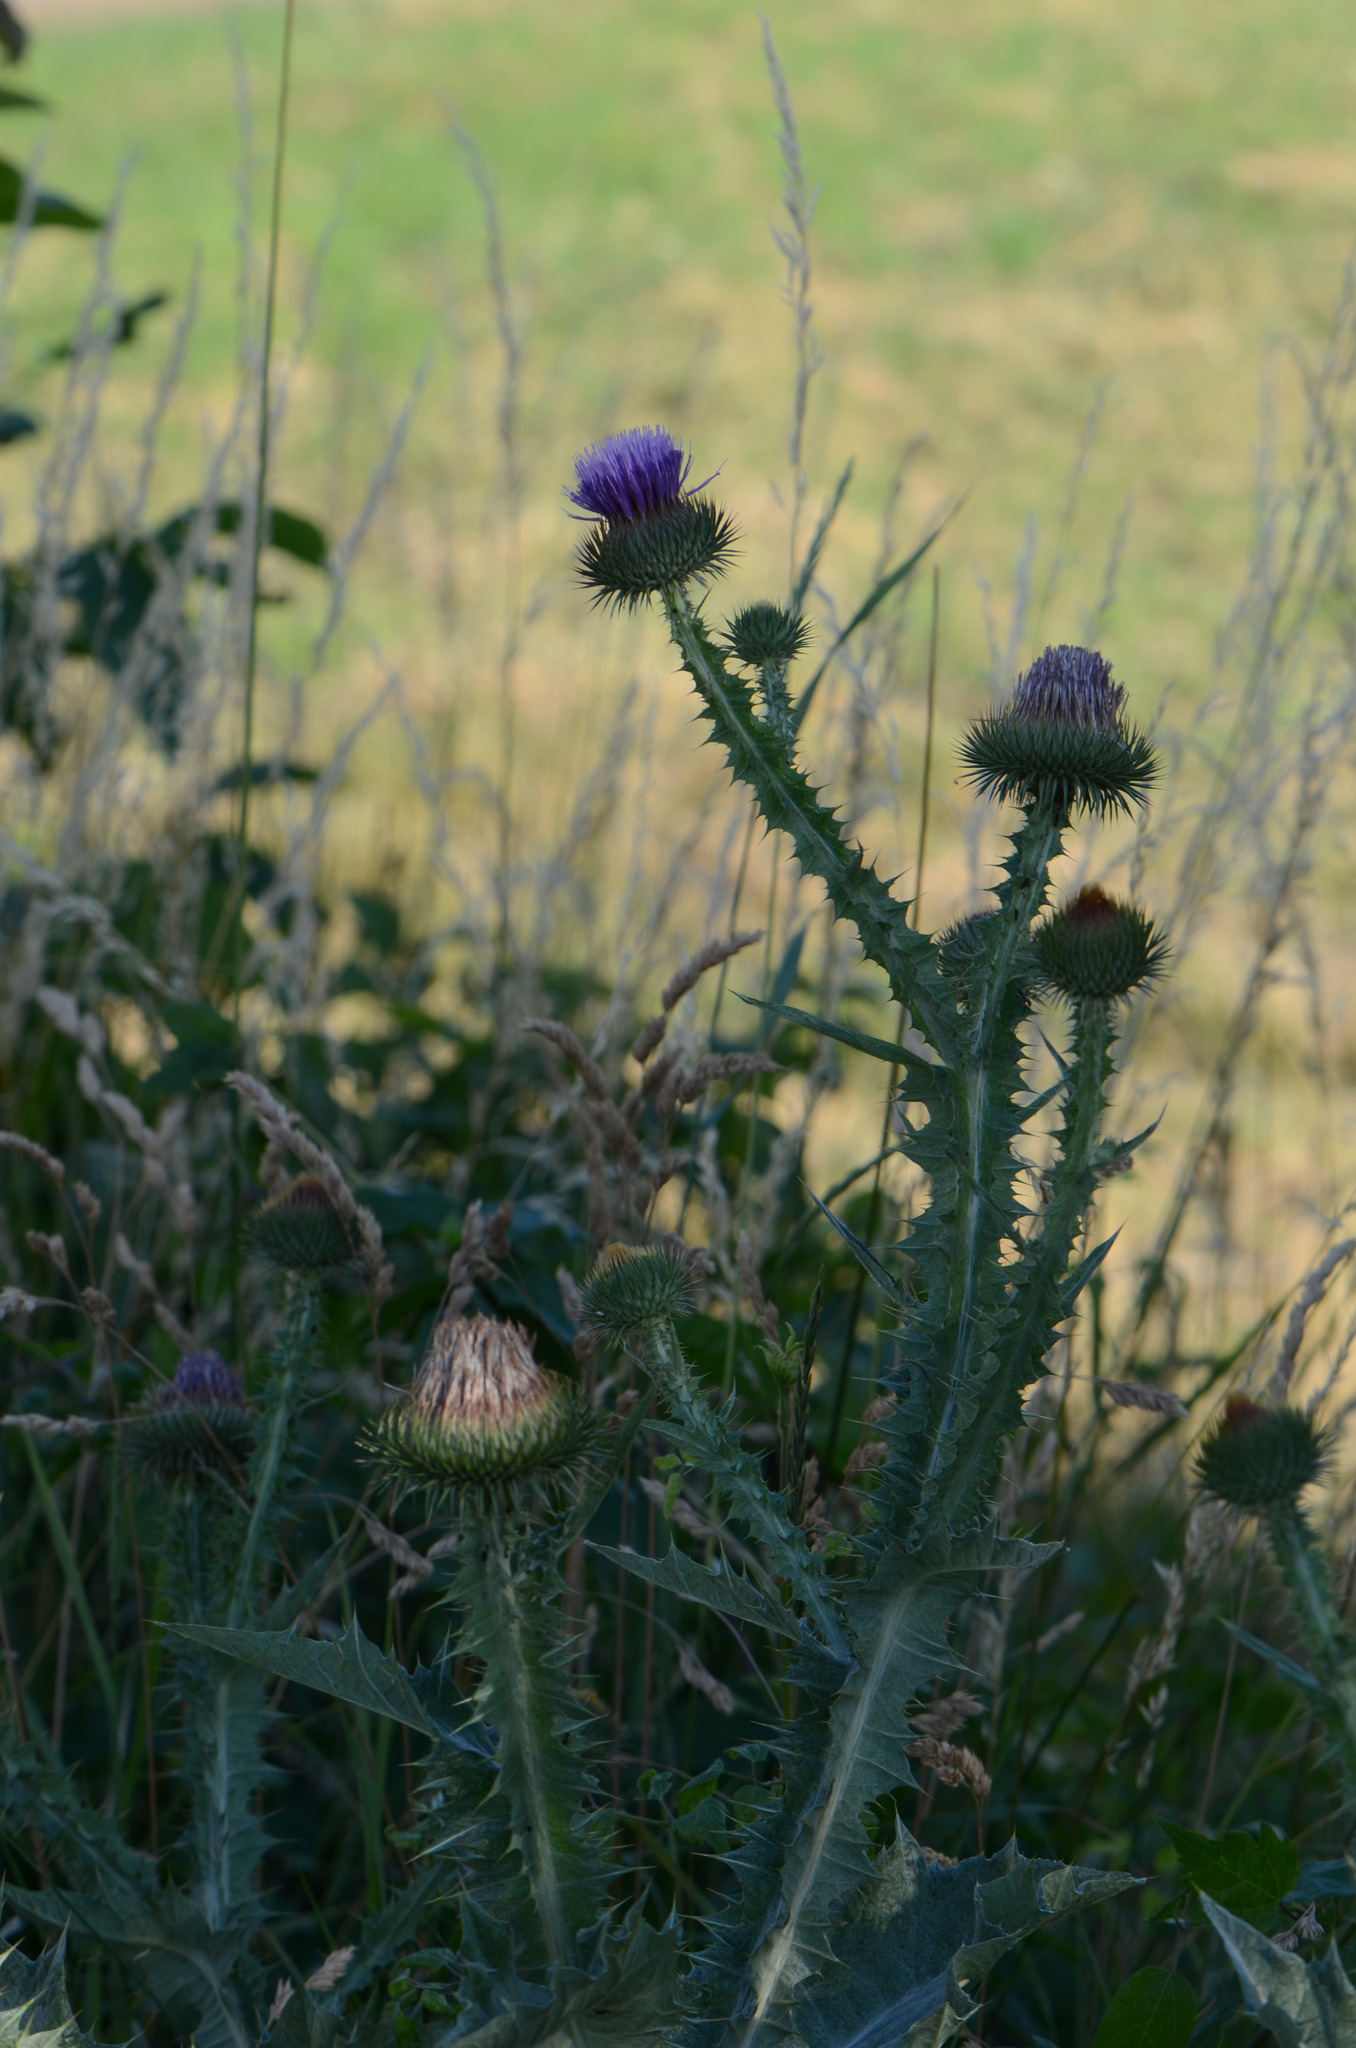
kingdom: Plantae
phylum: Tracheophyta
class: Magnoliopsida
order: Asterales
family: Asteraceae
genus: Onopordum
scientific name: Onopordum acanthium
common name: Scotch thistle
